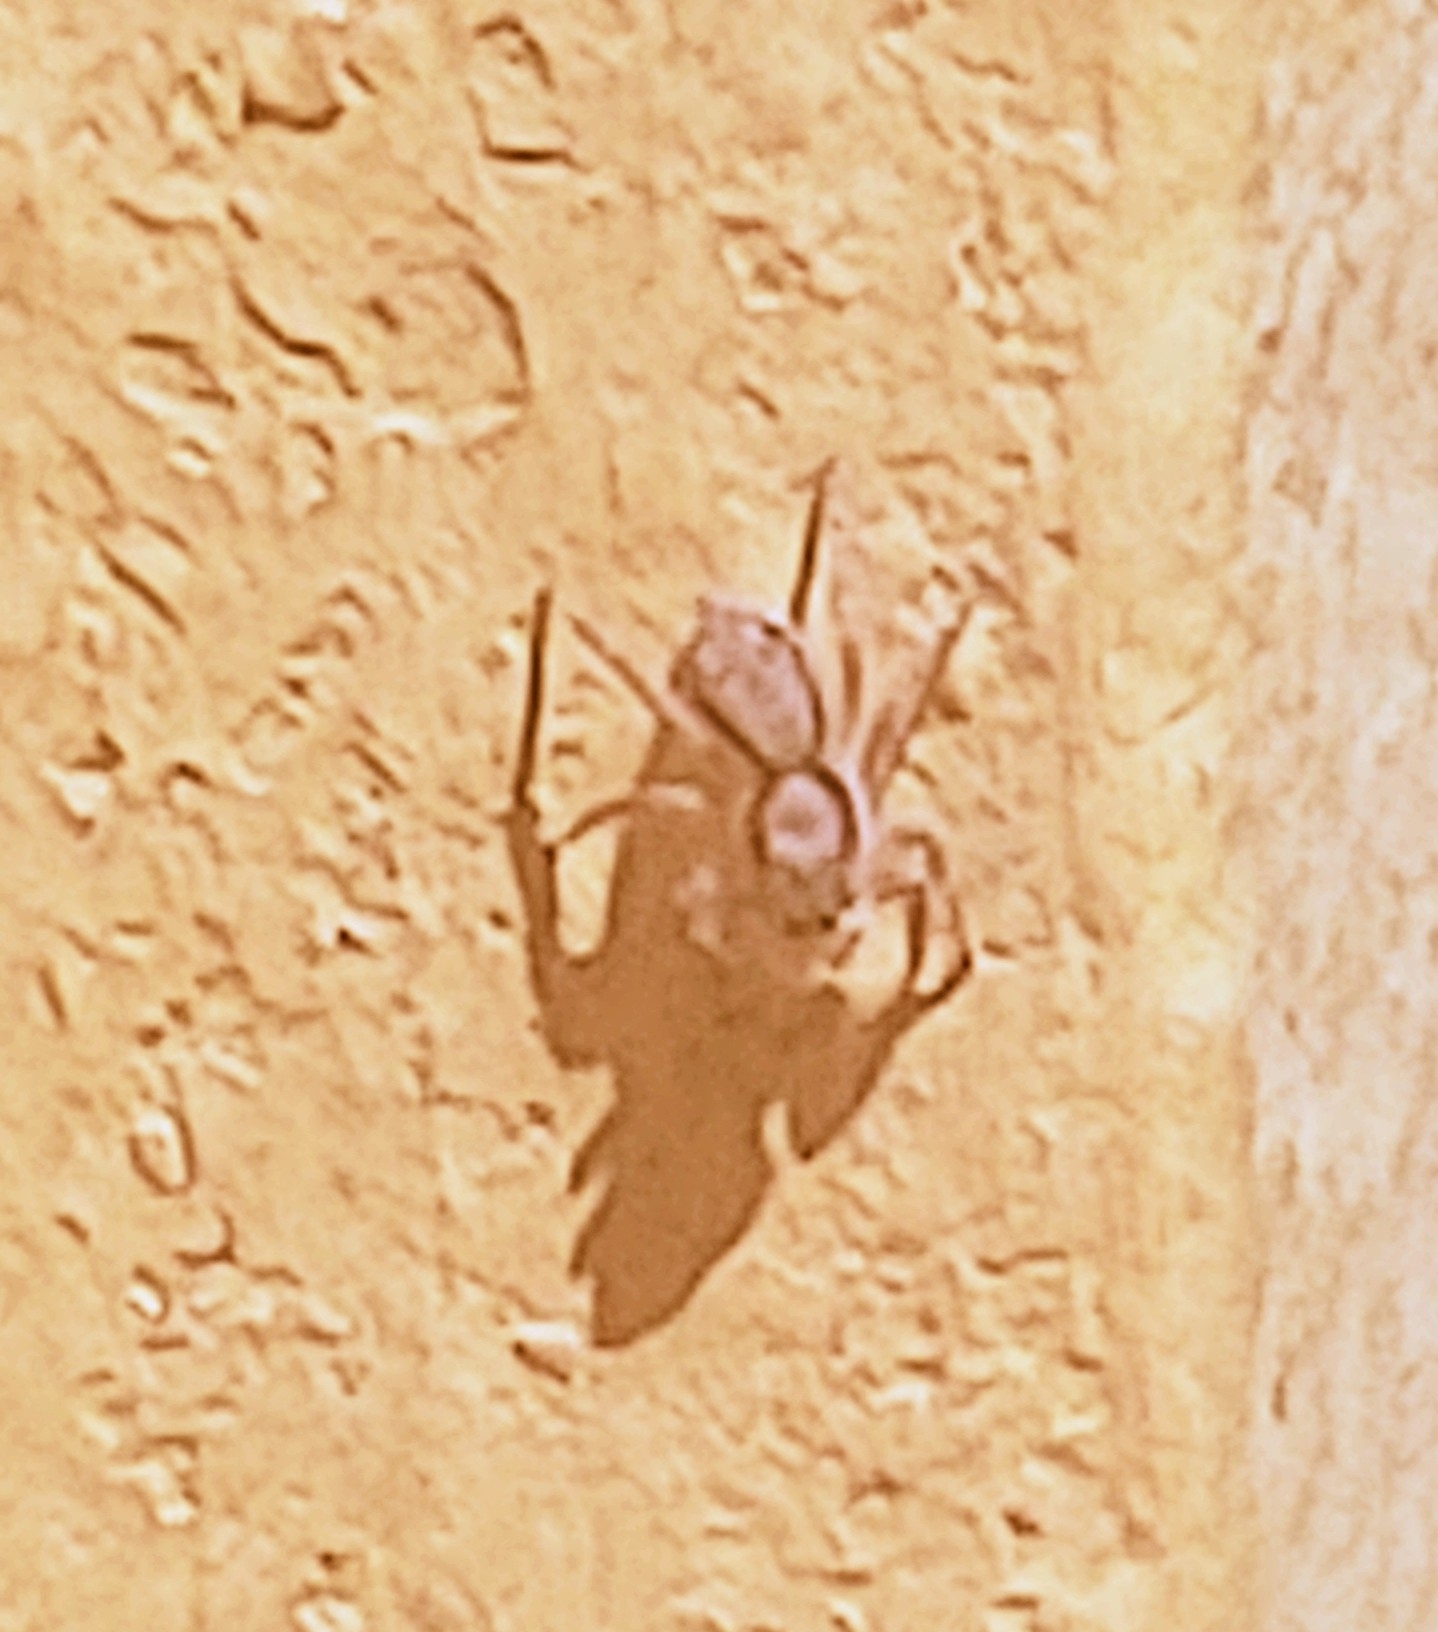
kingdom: Animalia
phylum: Arthropoda
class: Arachnida
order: Araneae
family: Salticidae
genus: Menemerus
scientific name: Menemerus bivittatus
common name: Gray wall jumper
